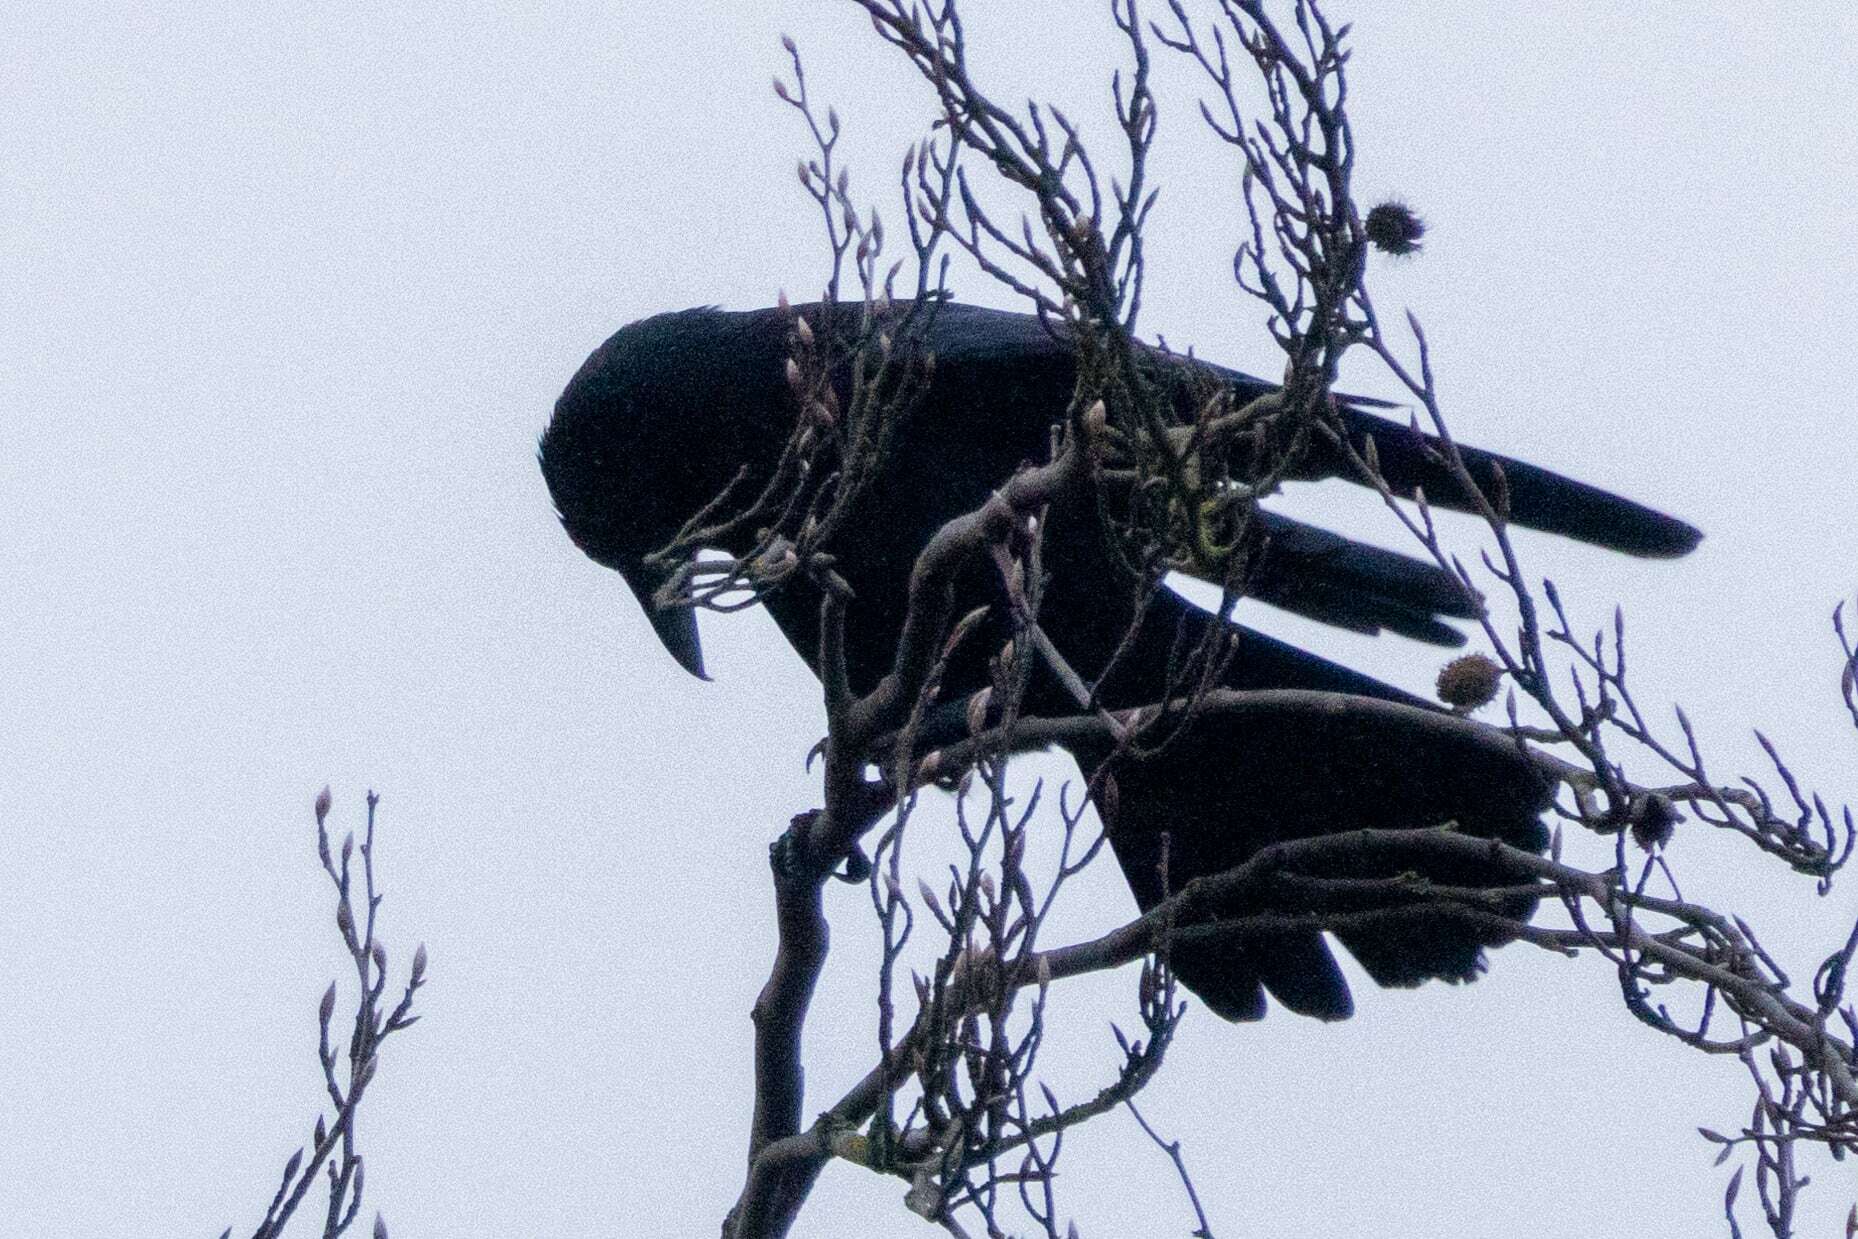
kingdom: Animalia
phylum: Chordata
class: Aves
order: Passeriformes
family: Corvidae
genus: Corvus
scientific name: Corvus corone
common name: Carrion crow
